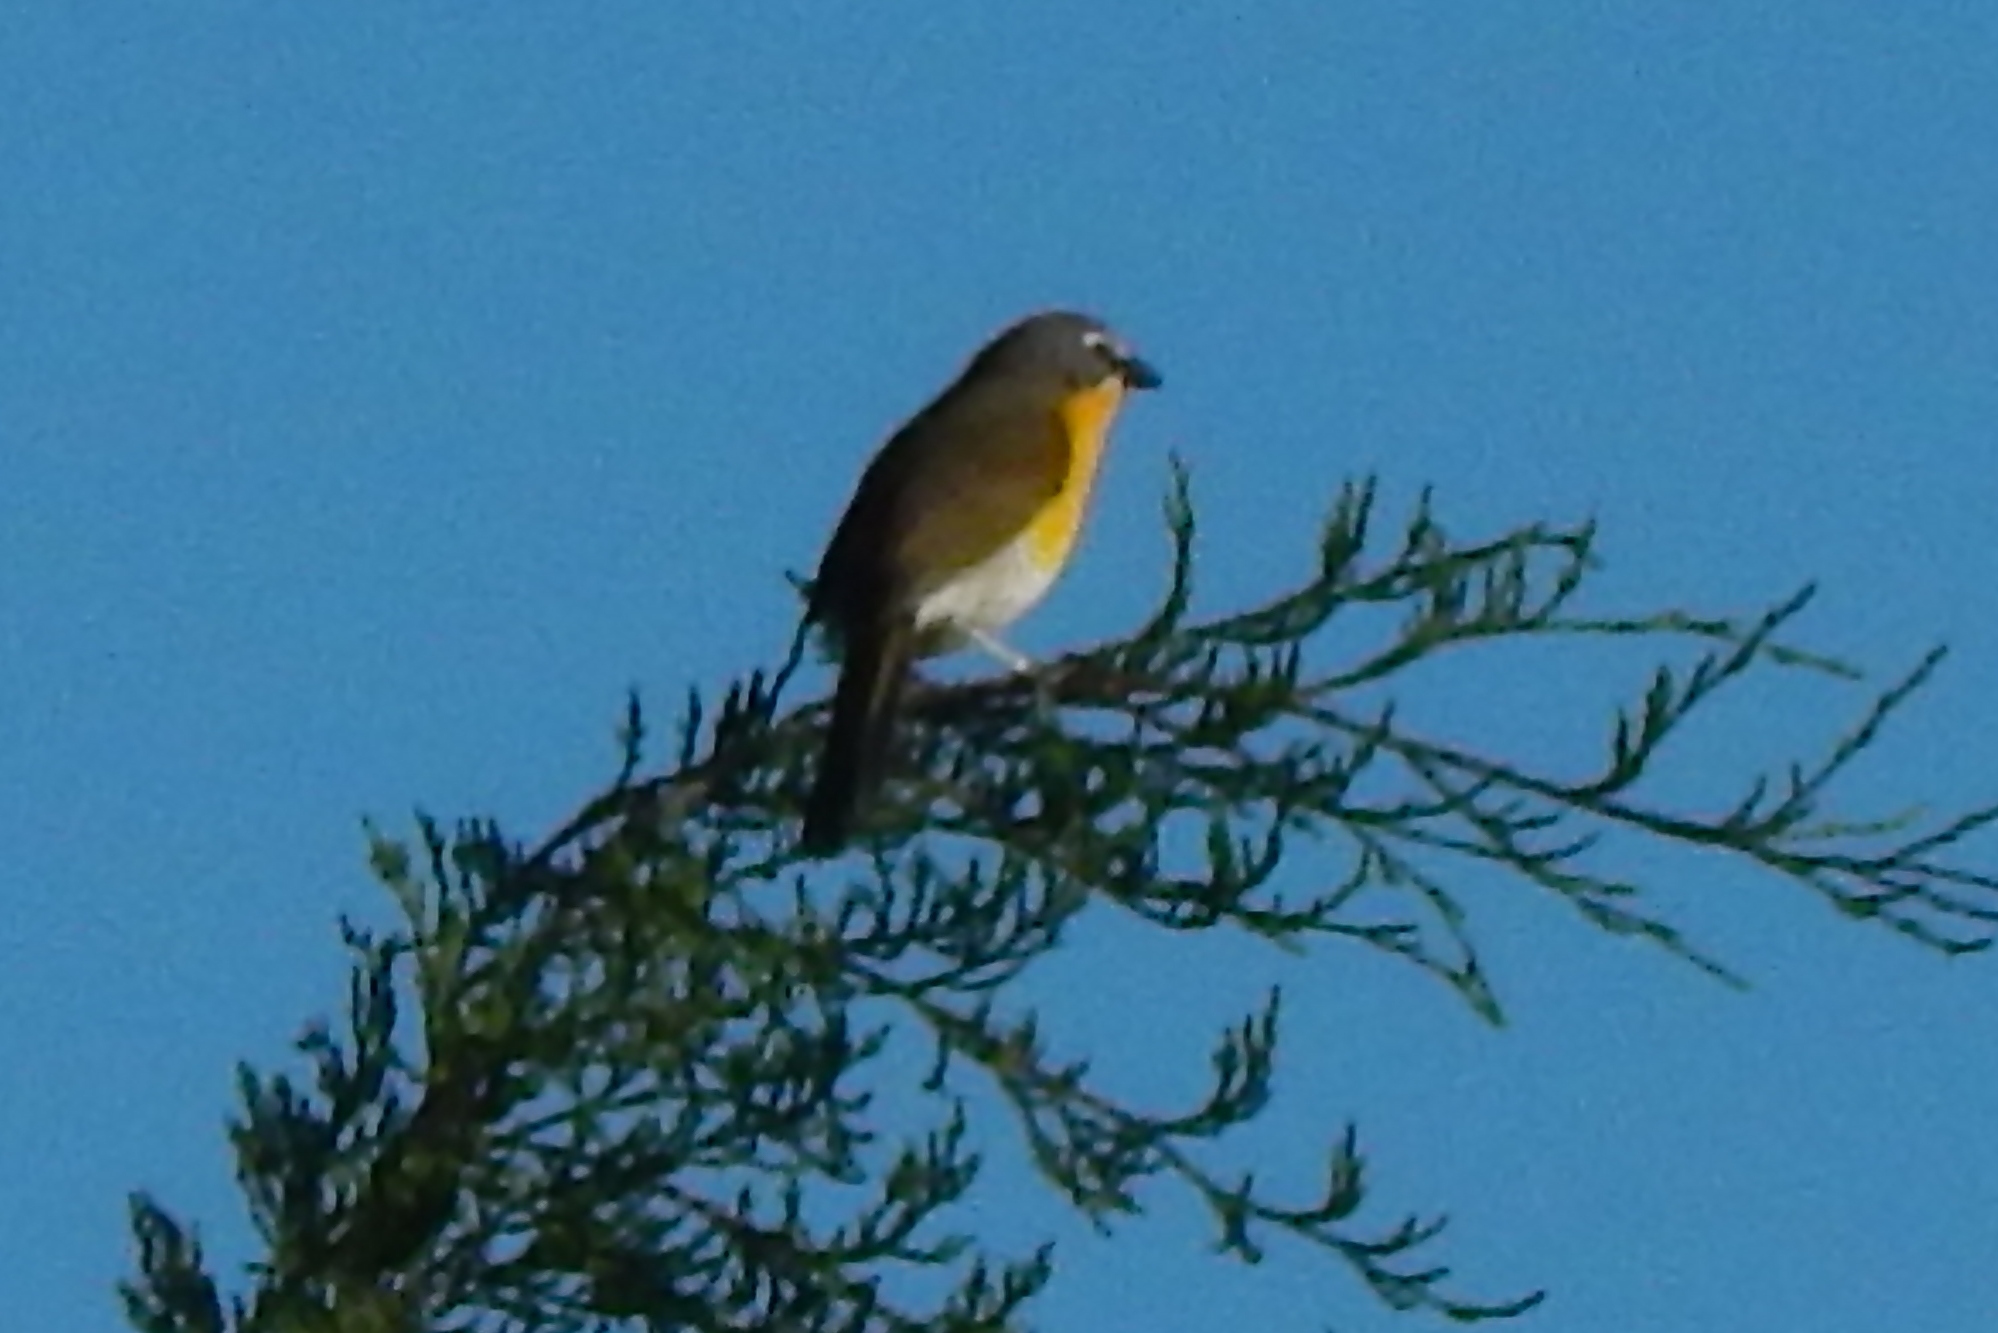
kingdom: Animalia
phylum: Chordata
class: Aves
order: Passeriformes
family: Parulidae
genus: Icteria
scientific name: Icteria virens
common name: Yellow-breasted chat
